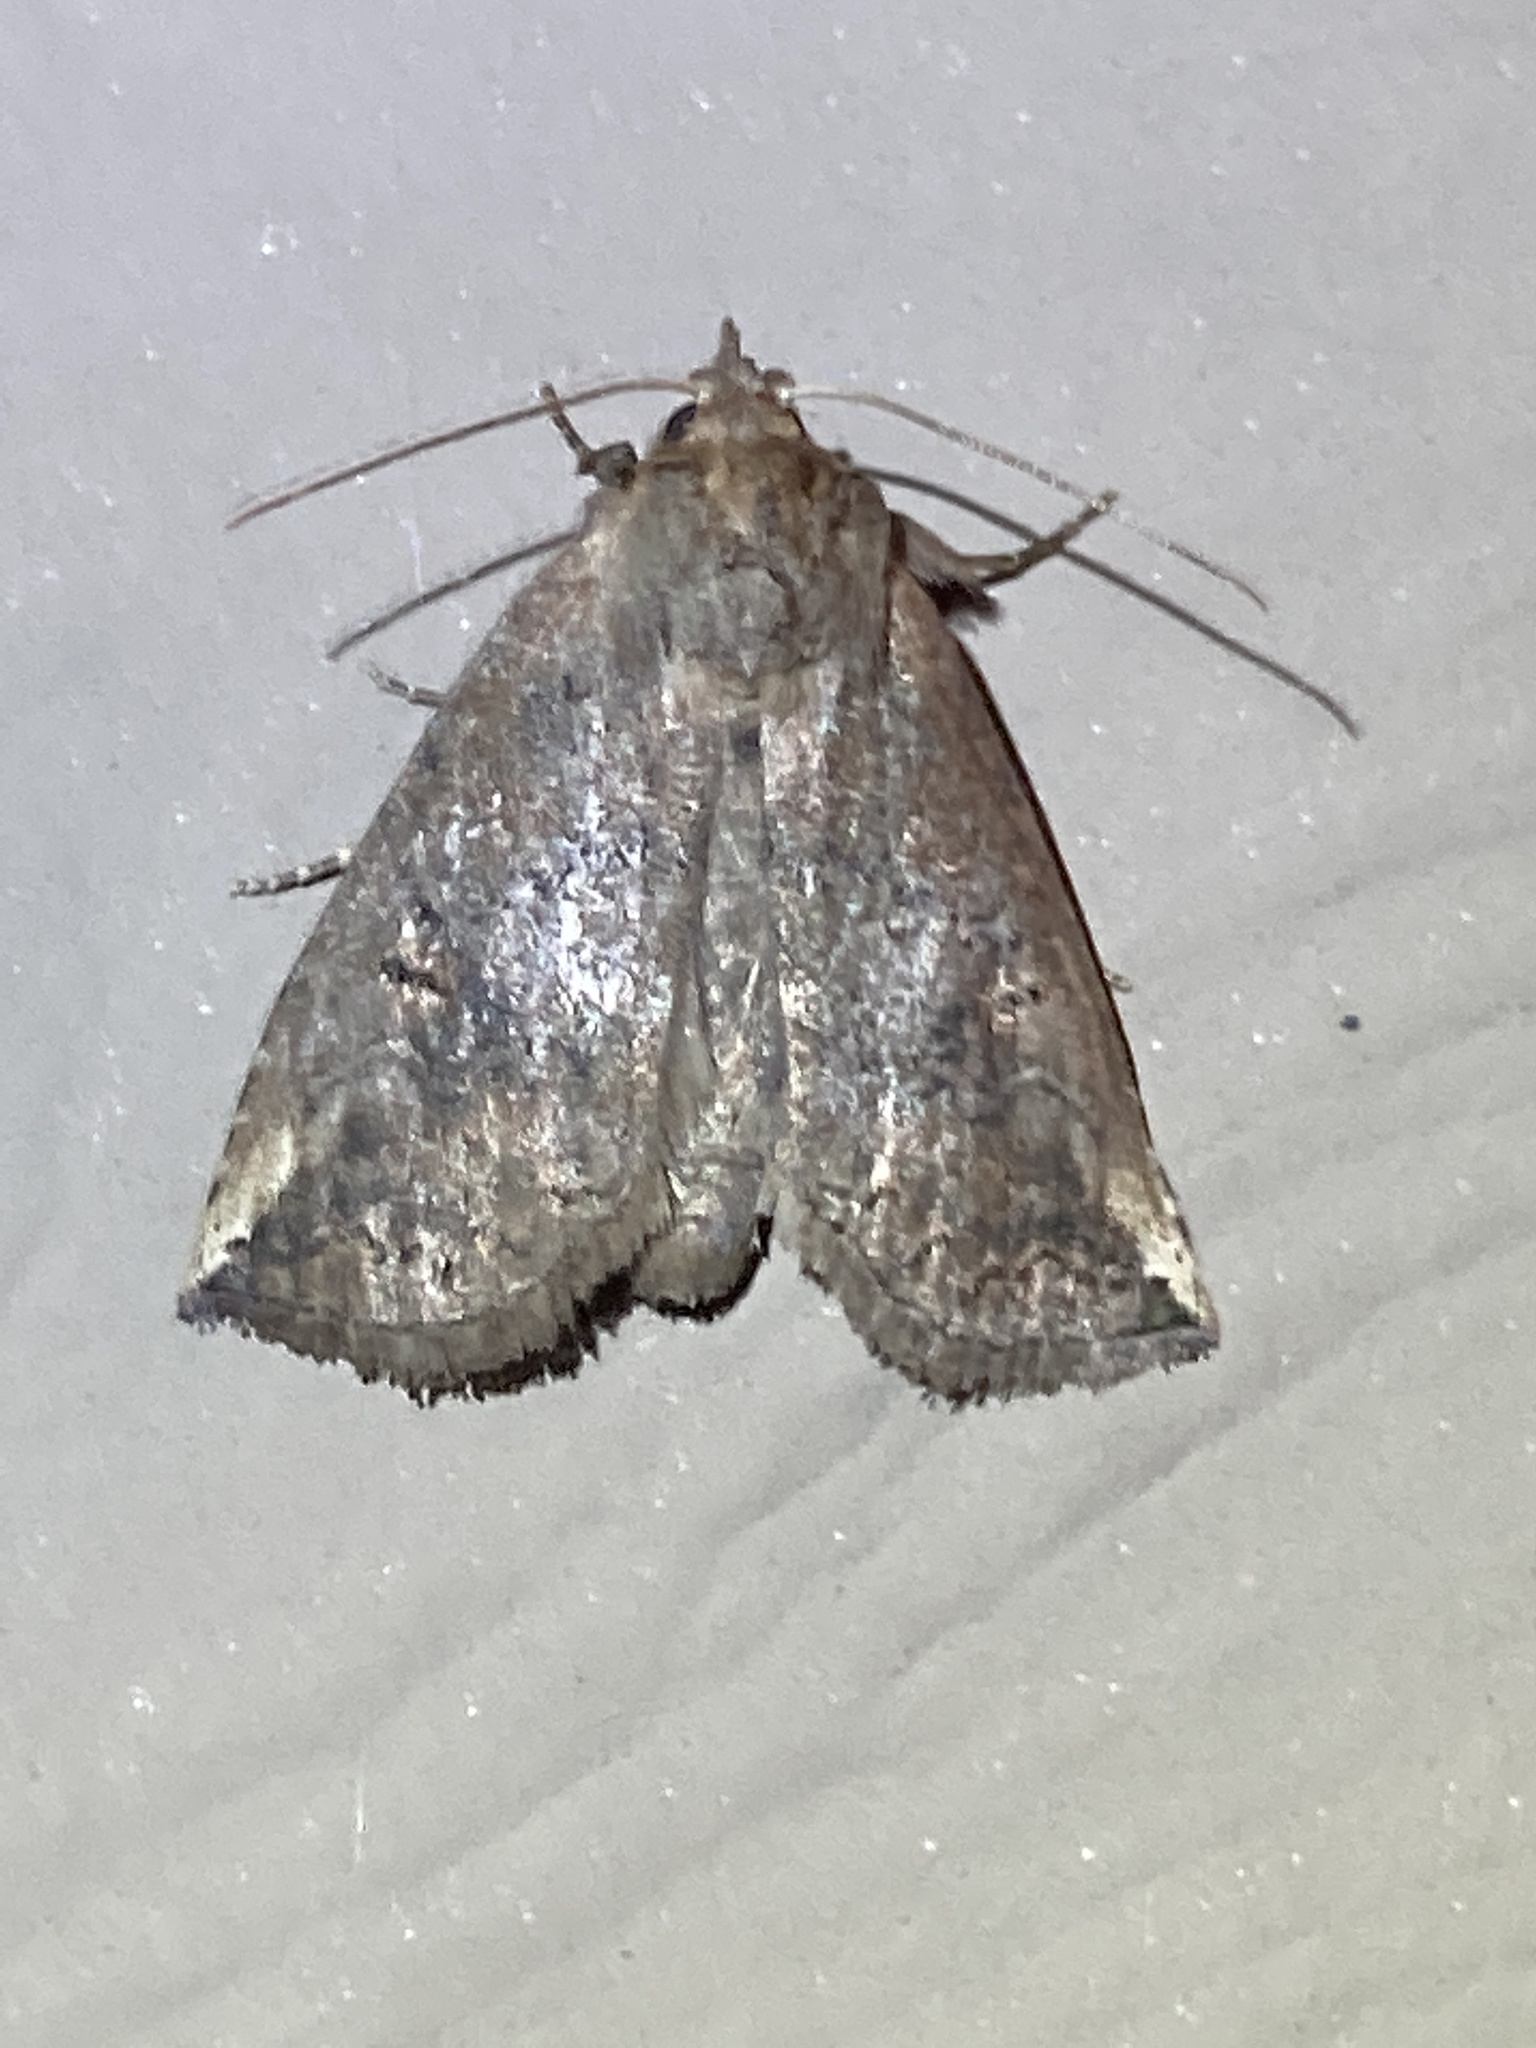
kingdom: Animalia
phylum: Arthropoda
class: Insecta
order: Lepidoptera
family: Notodontidae
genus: Elasmia
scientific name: Elasmia packardii
